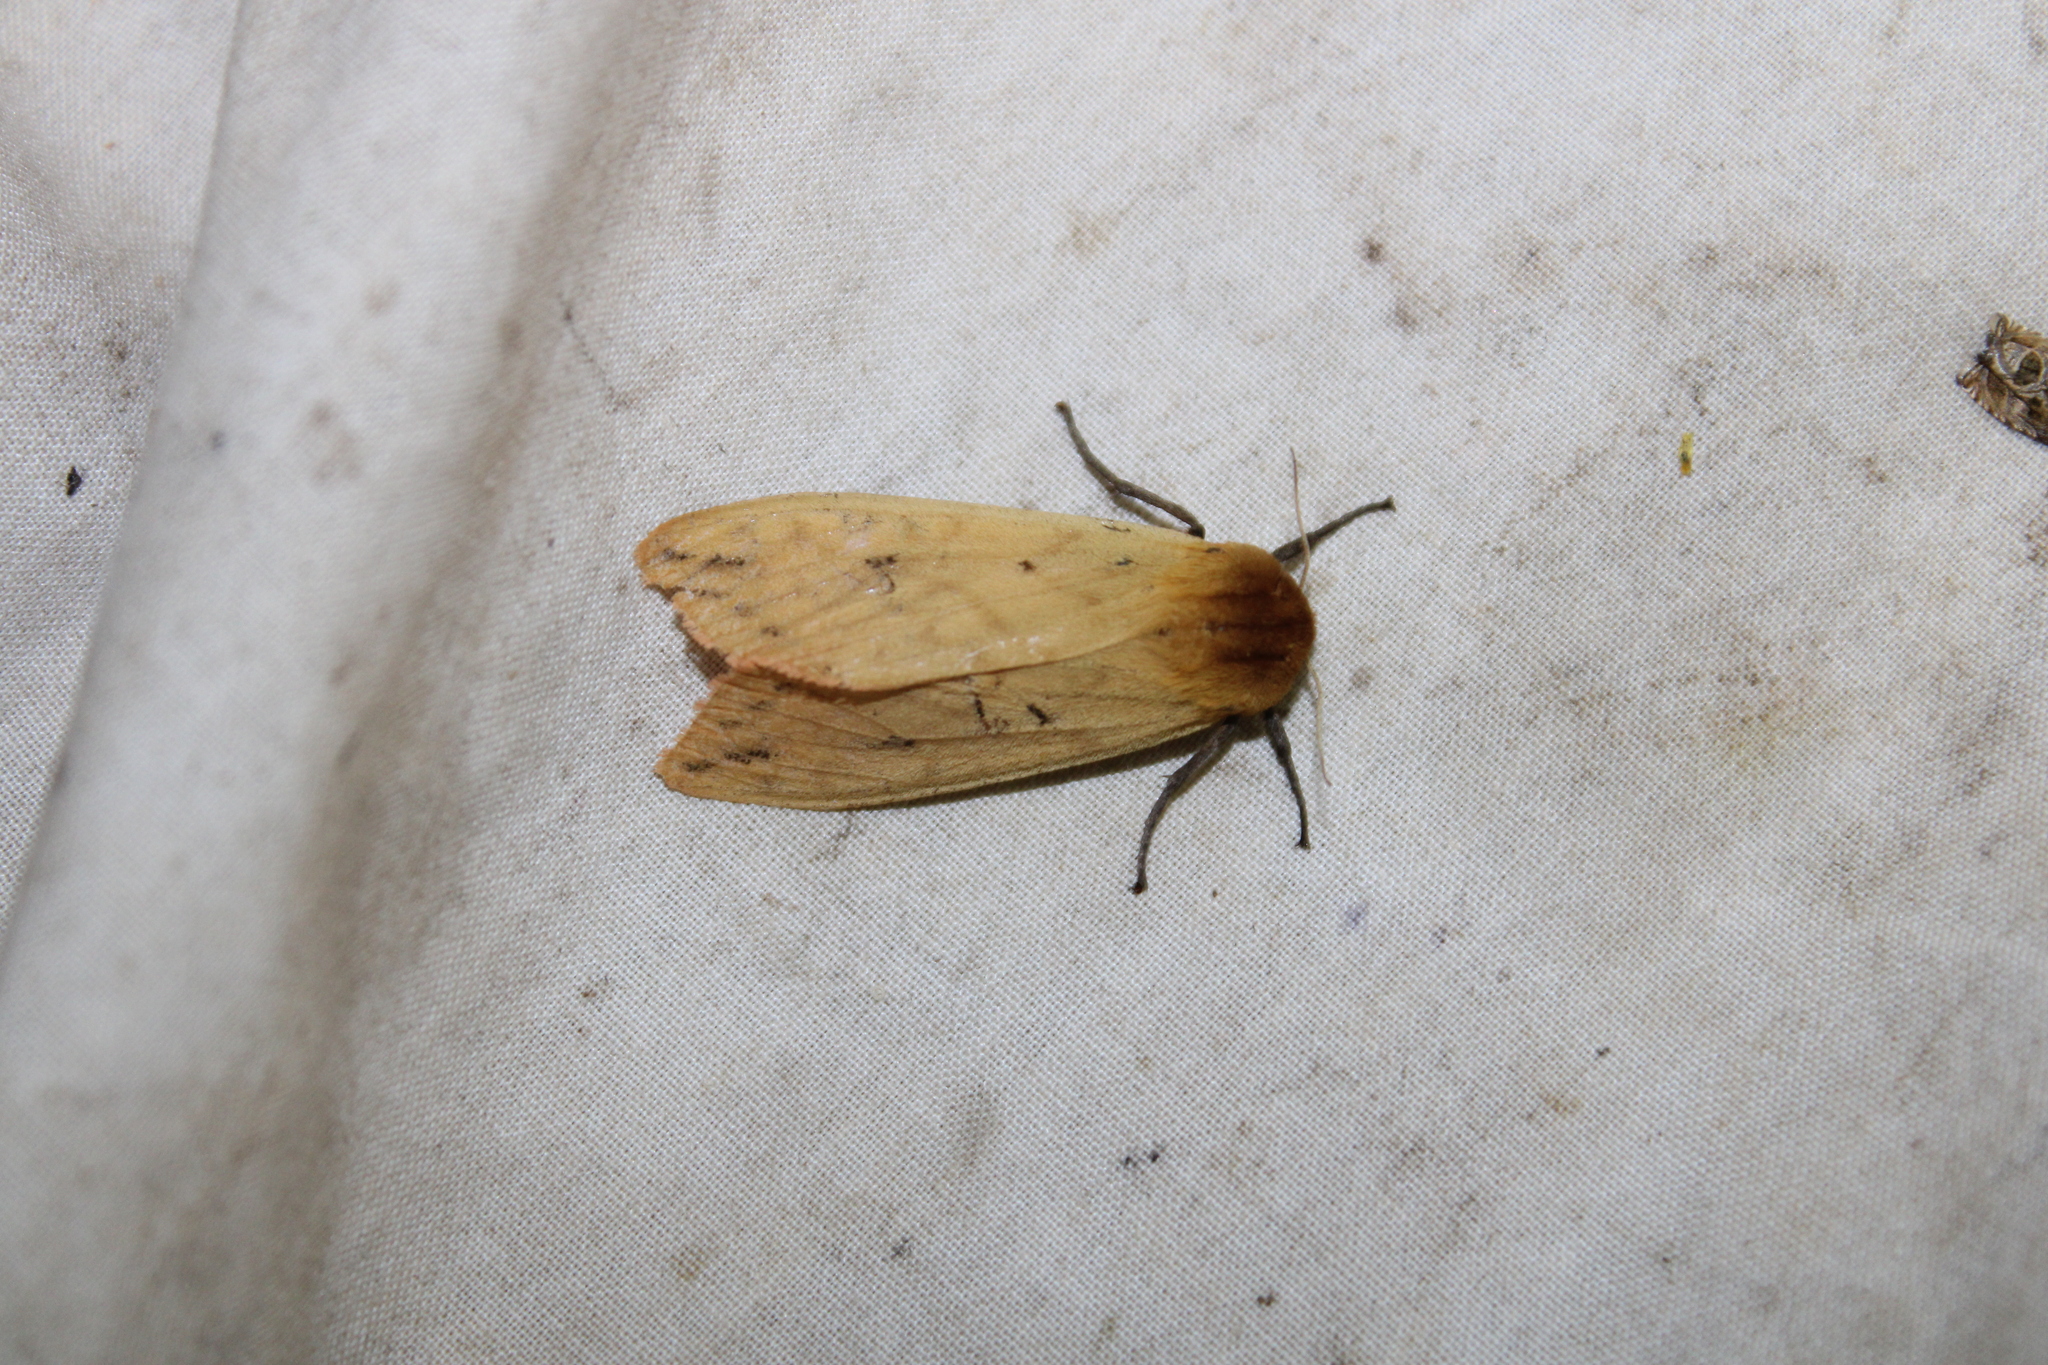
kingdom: Animalia
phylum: Arthropoda
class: Insecta
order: Lepidoptera
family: Erebidae
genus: Pyrrharctia
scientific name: Pyrrharctia isabella
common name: Isabella tiger moth
